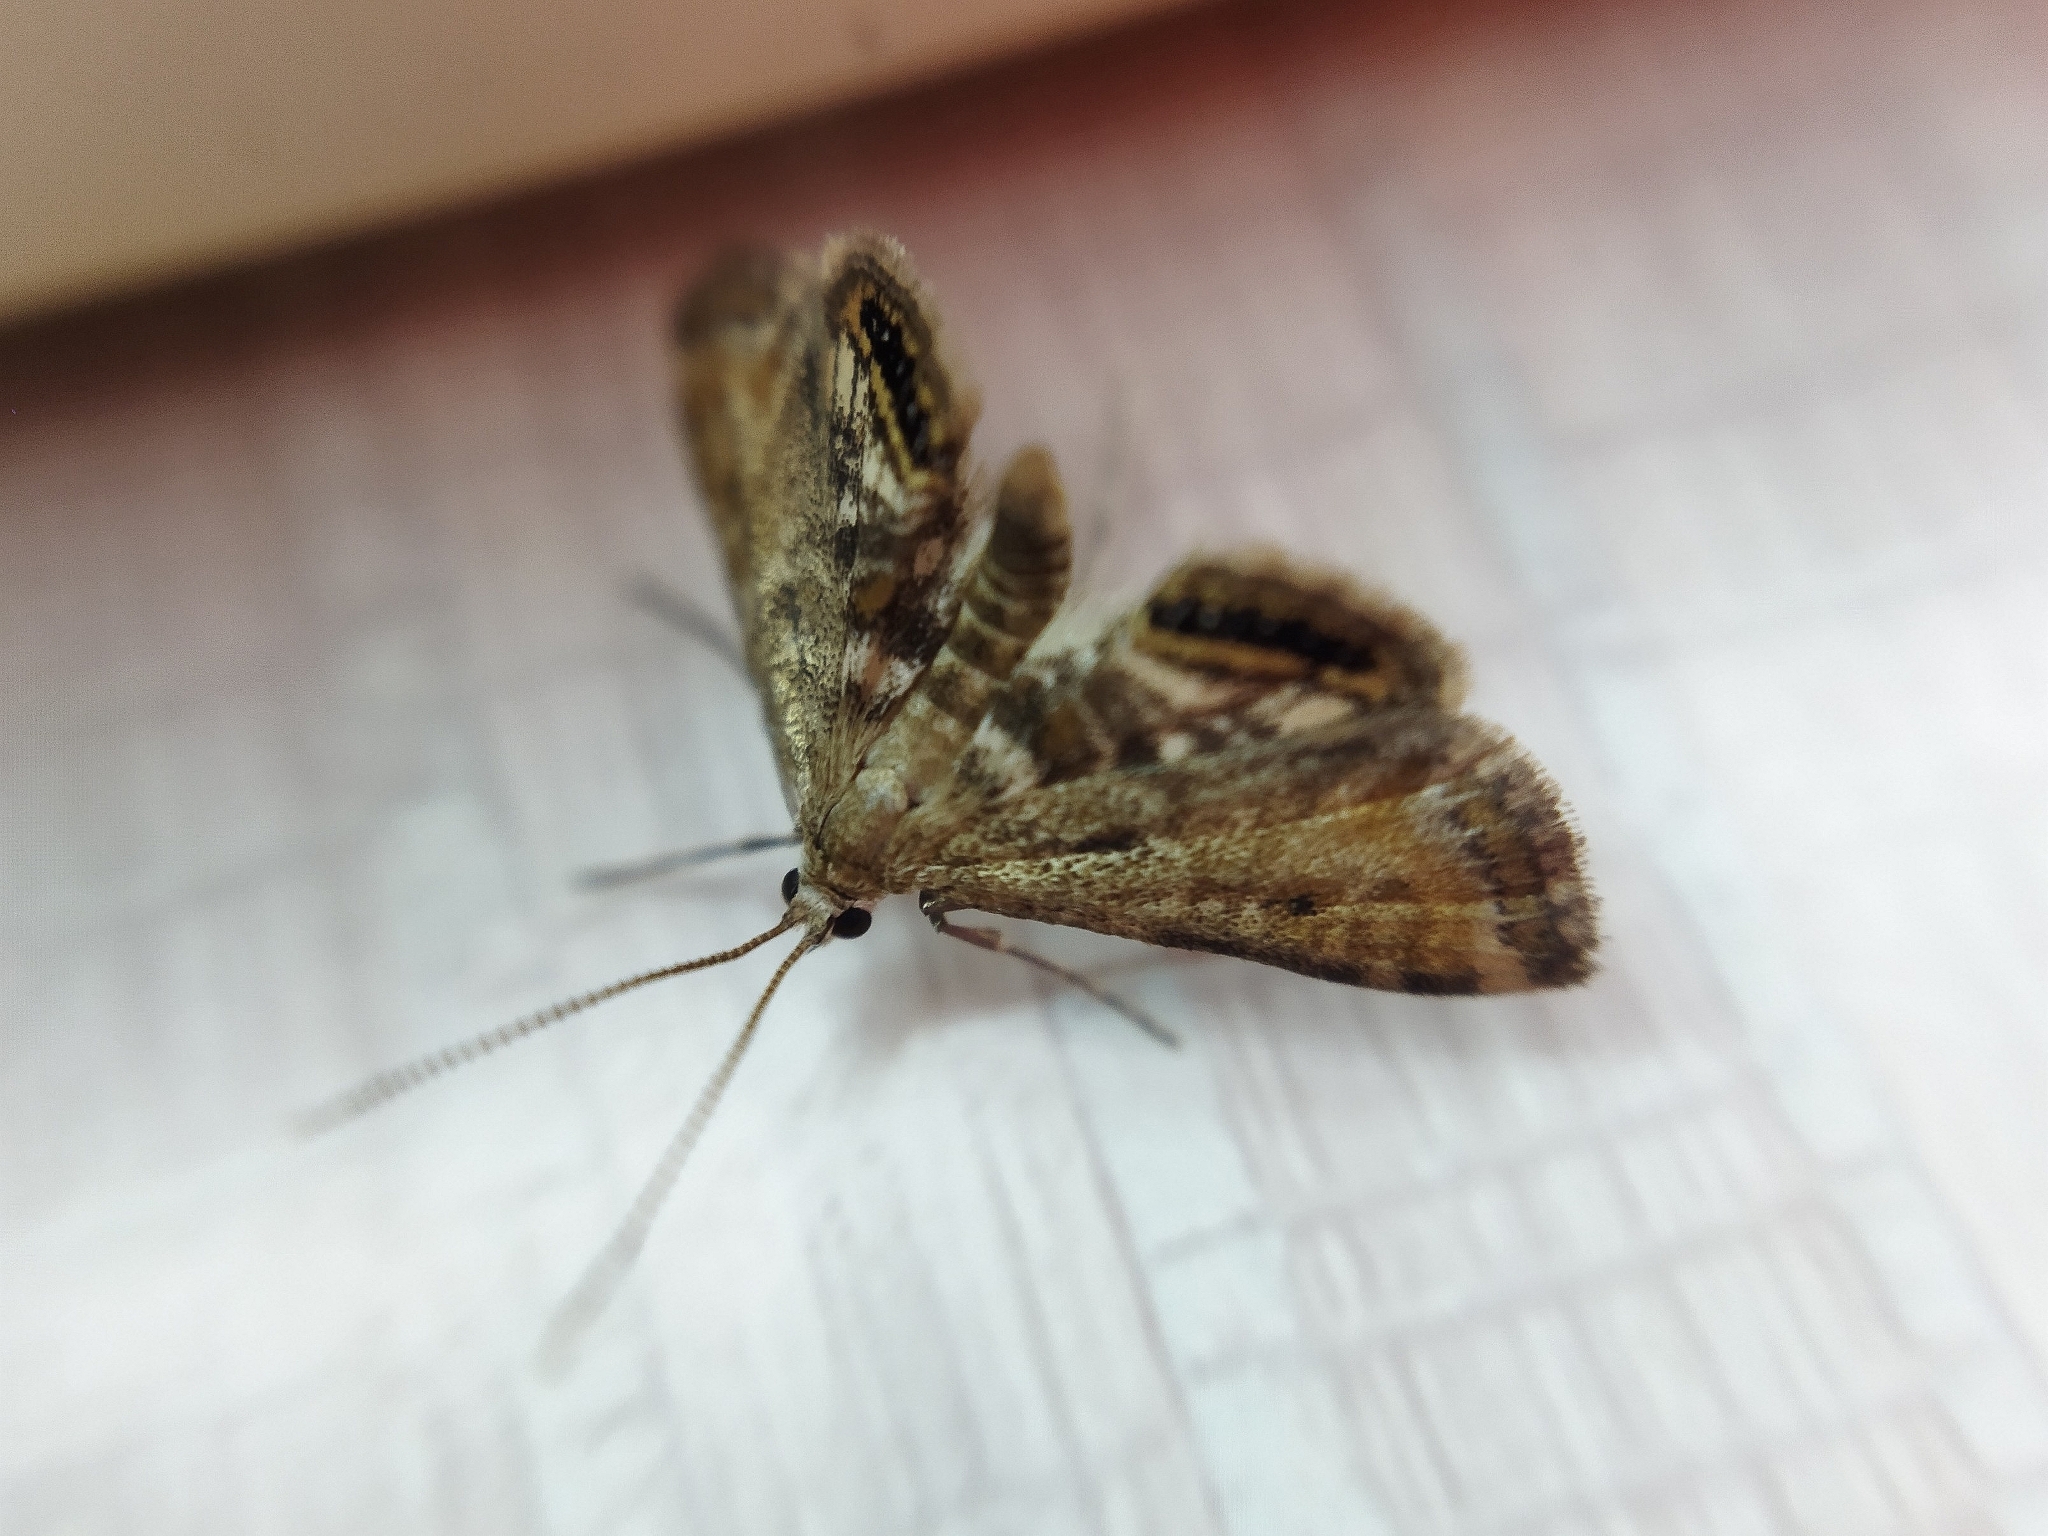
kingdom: Animalia
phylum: Arthropoda
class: Insecta
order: Lepidoptera
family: Crambidae
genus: Cataclysta
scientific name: Cataclysta lemnata
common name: Small china-mark
